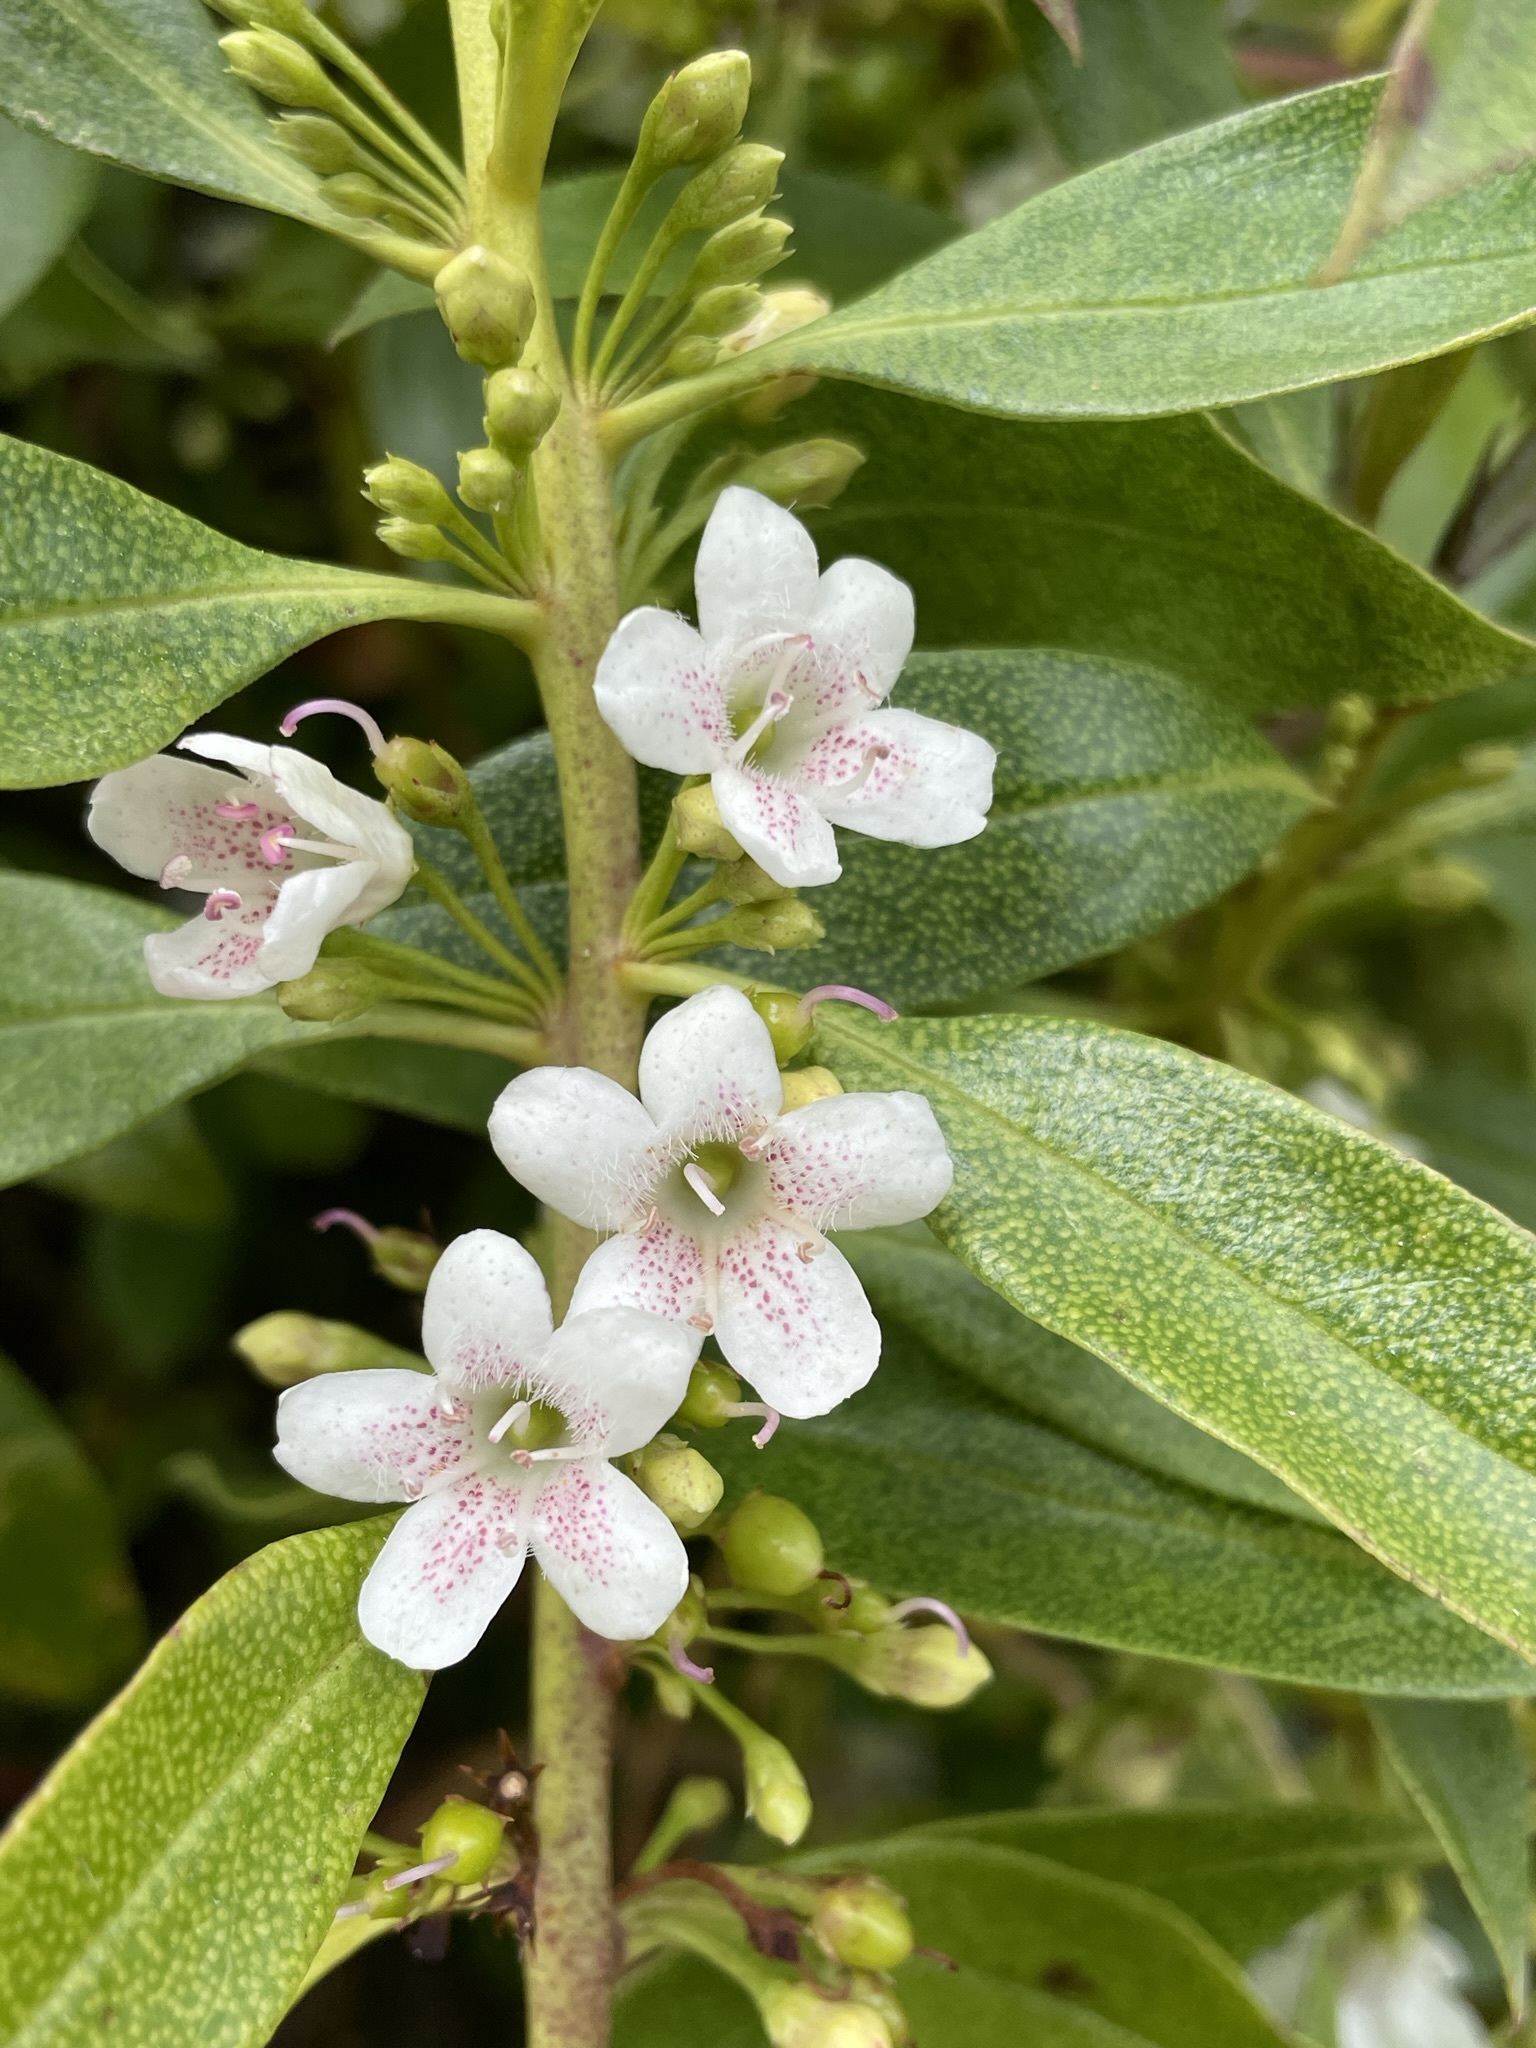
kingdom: Plantae
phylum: Tracheophyta
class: Magnoliopsida
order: Lamiales
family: Scrophulariaceae
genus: Myoporum
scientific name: Myoporum laetum
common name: Ngaio tree
